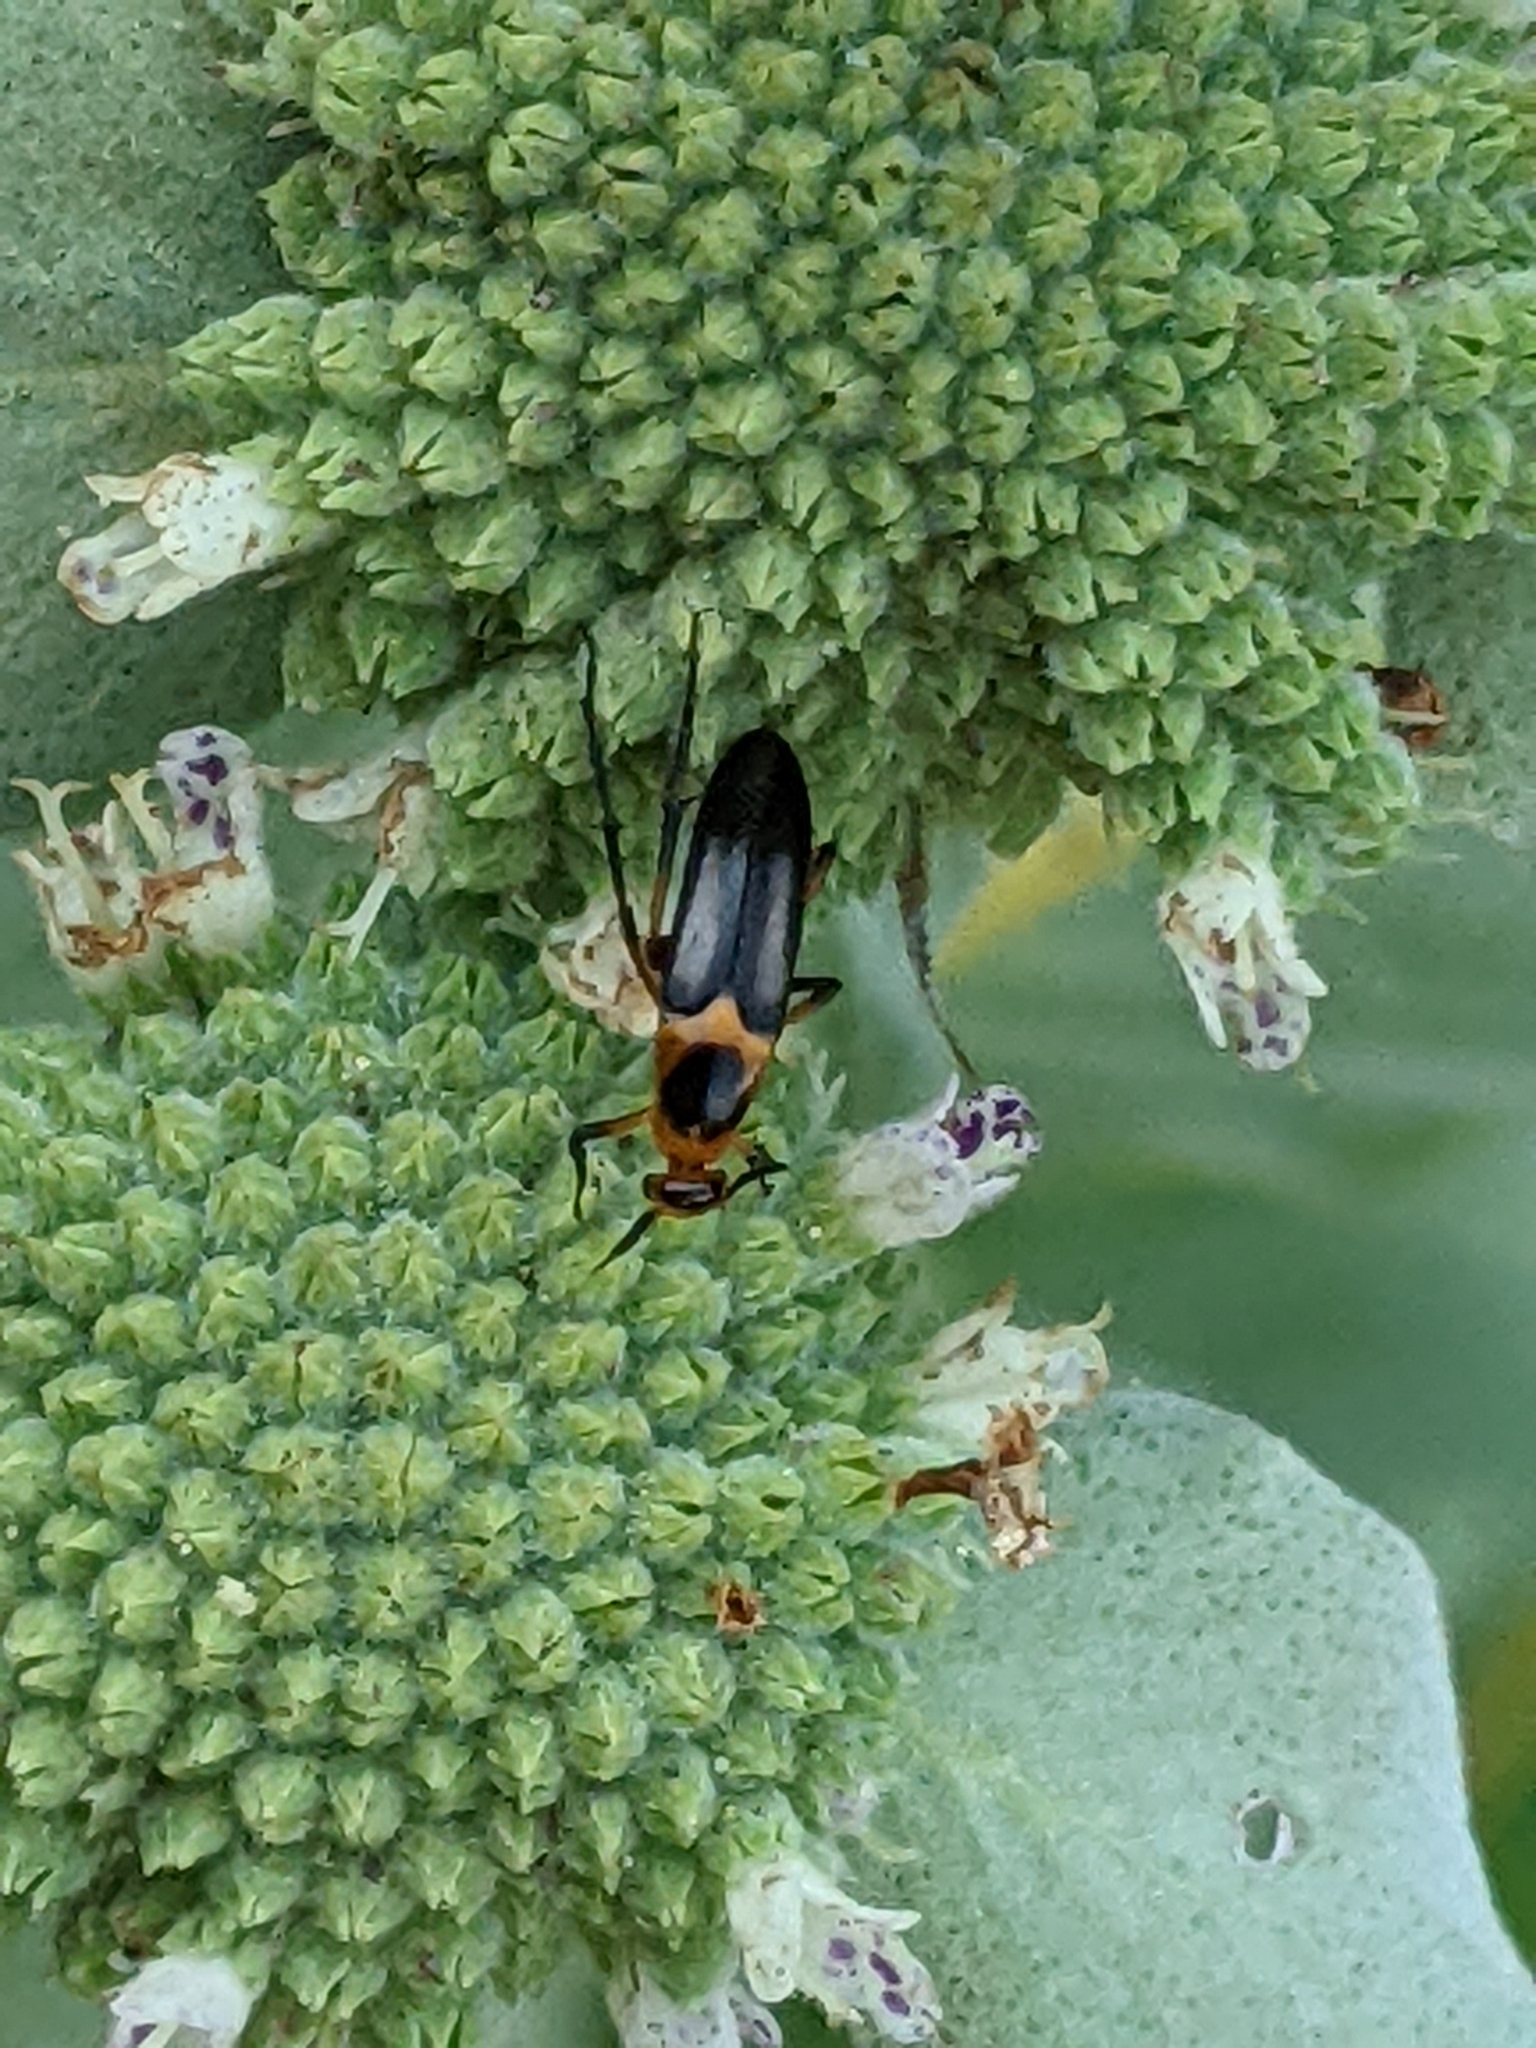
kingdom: Animalia
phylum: Arthropoda
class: Insecta
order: Coleoptera
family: Ripiphoridae
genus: Macrosiagon
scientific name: Macrosiagon limbatum
